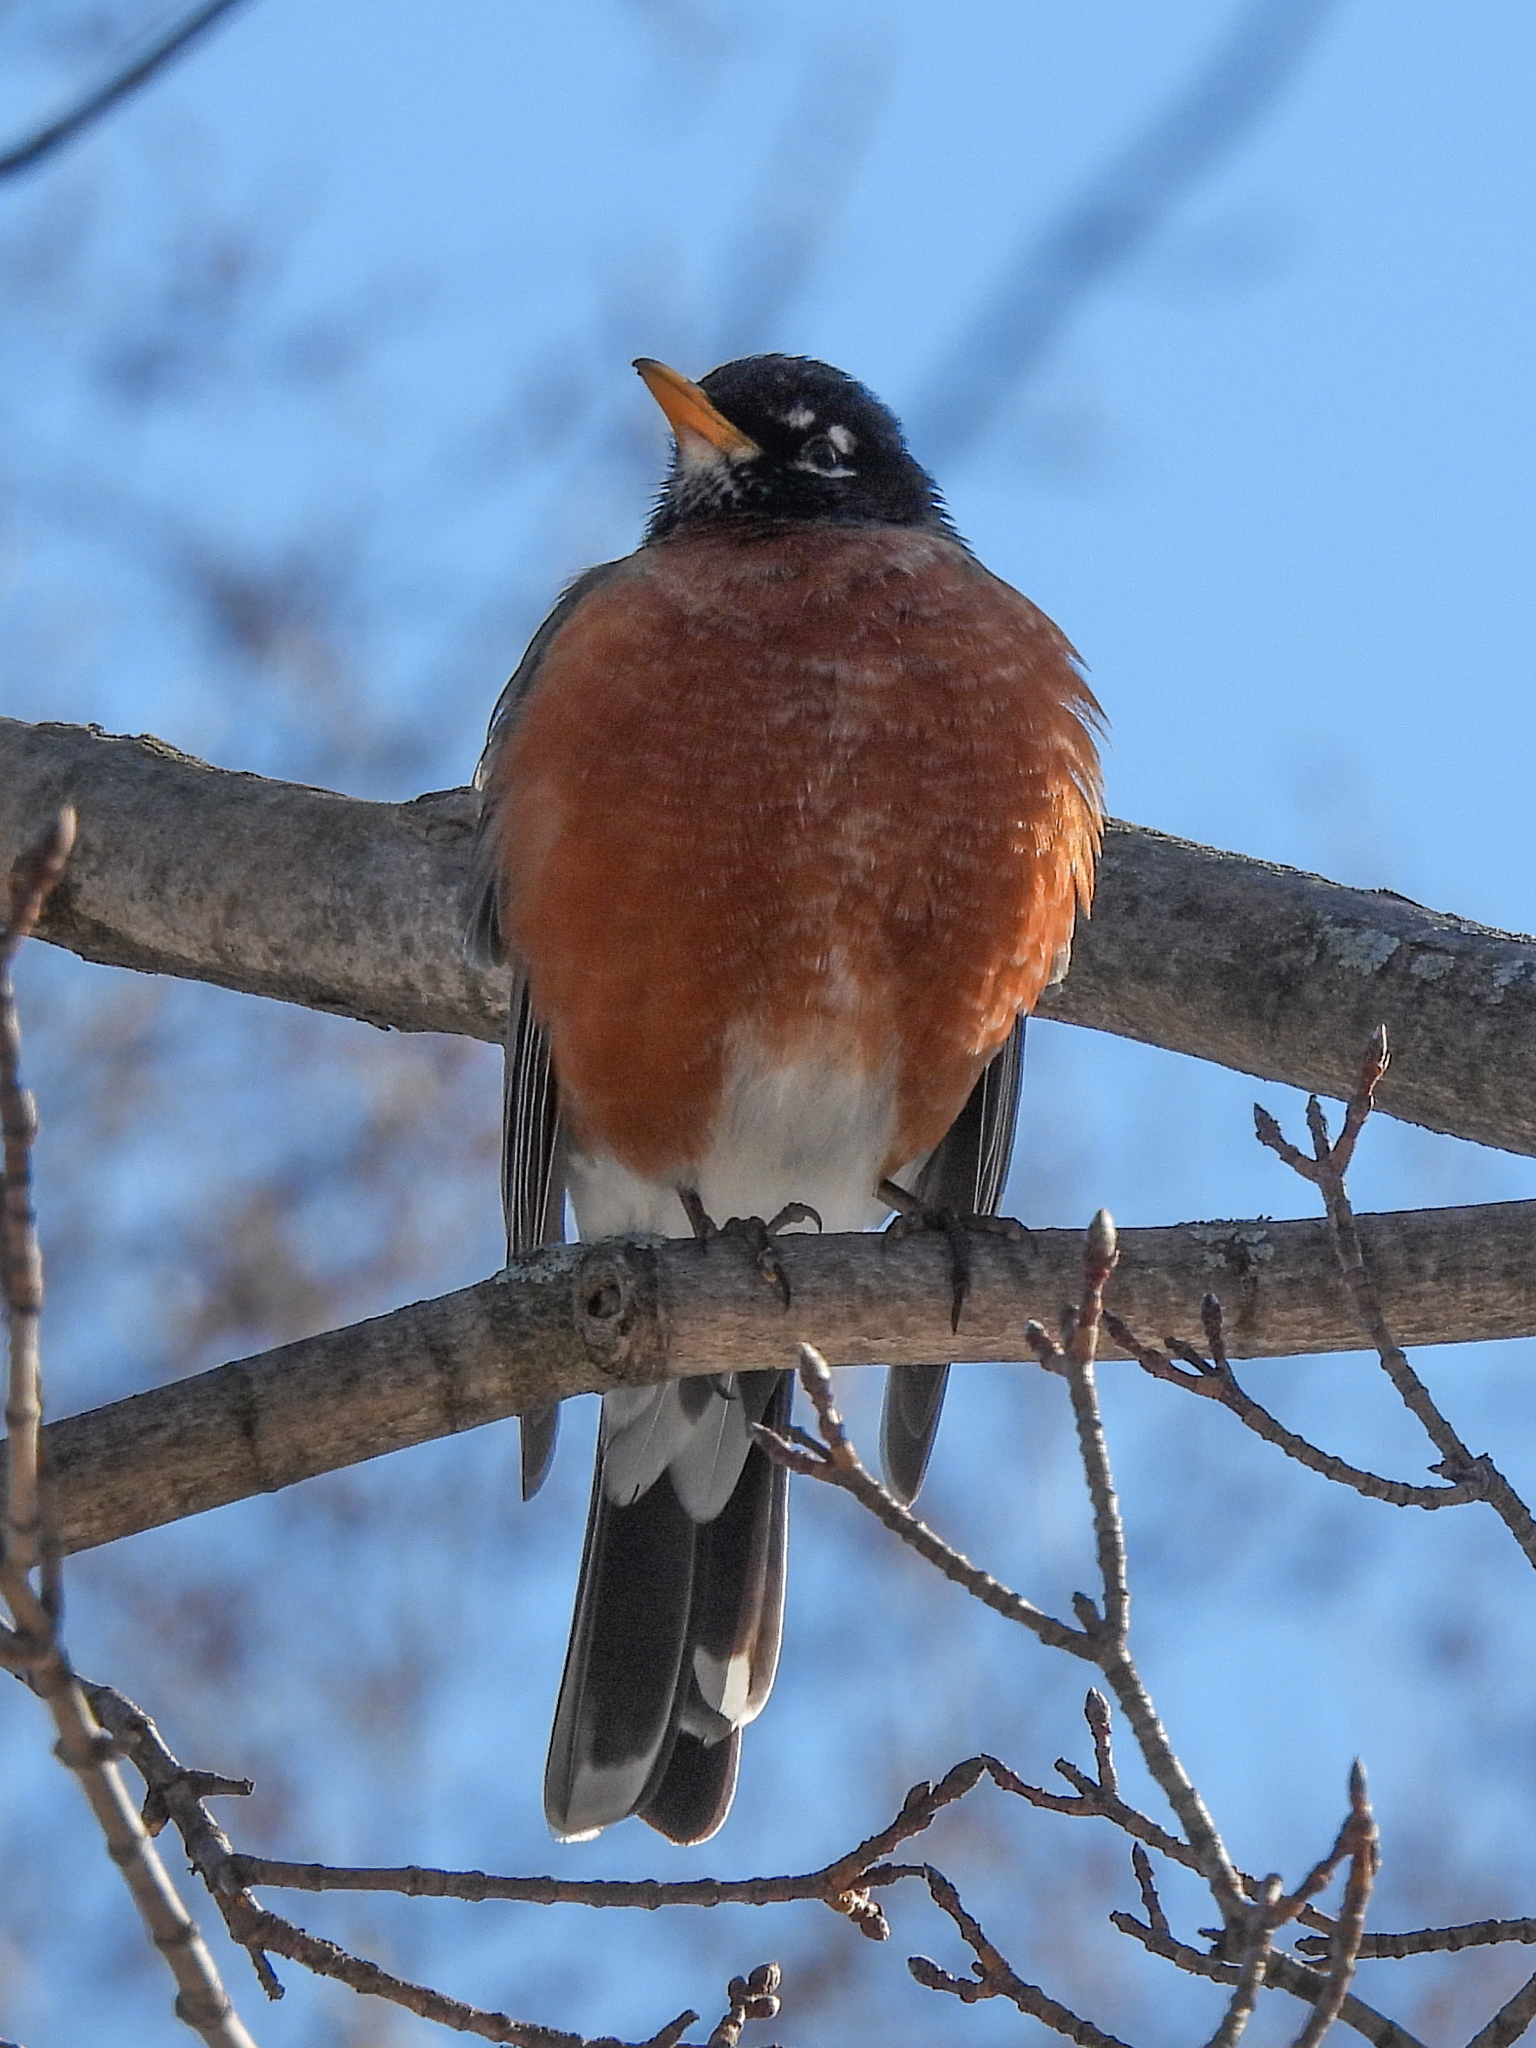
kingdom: Animalia
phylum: Chordata
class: Aves
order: Passeriformes
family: Turdidae
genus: Turdus
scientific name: Turdus migratorius
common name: American robin
